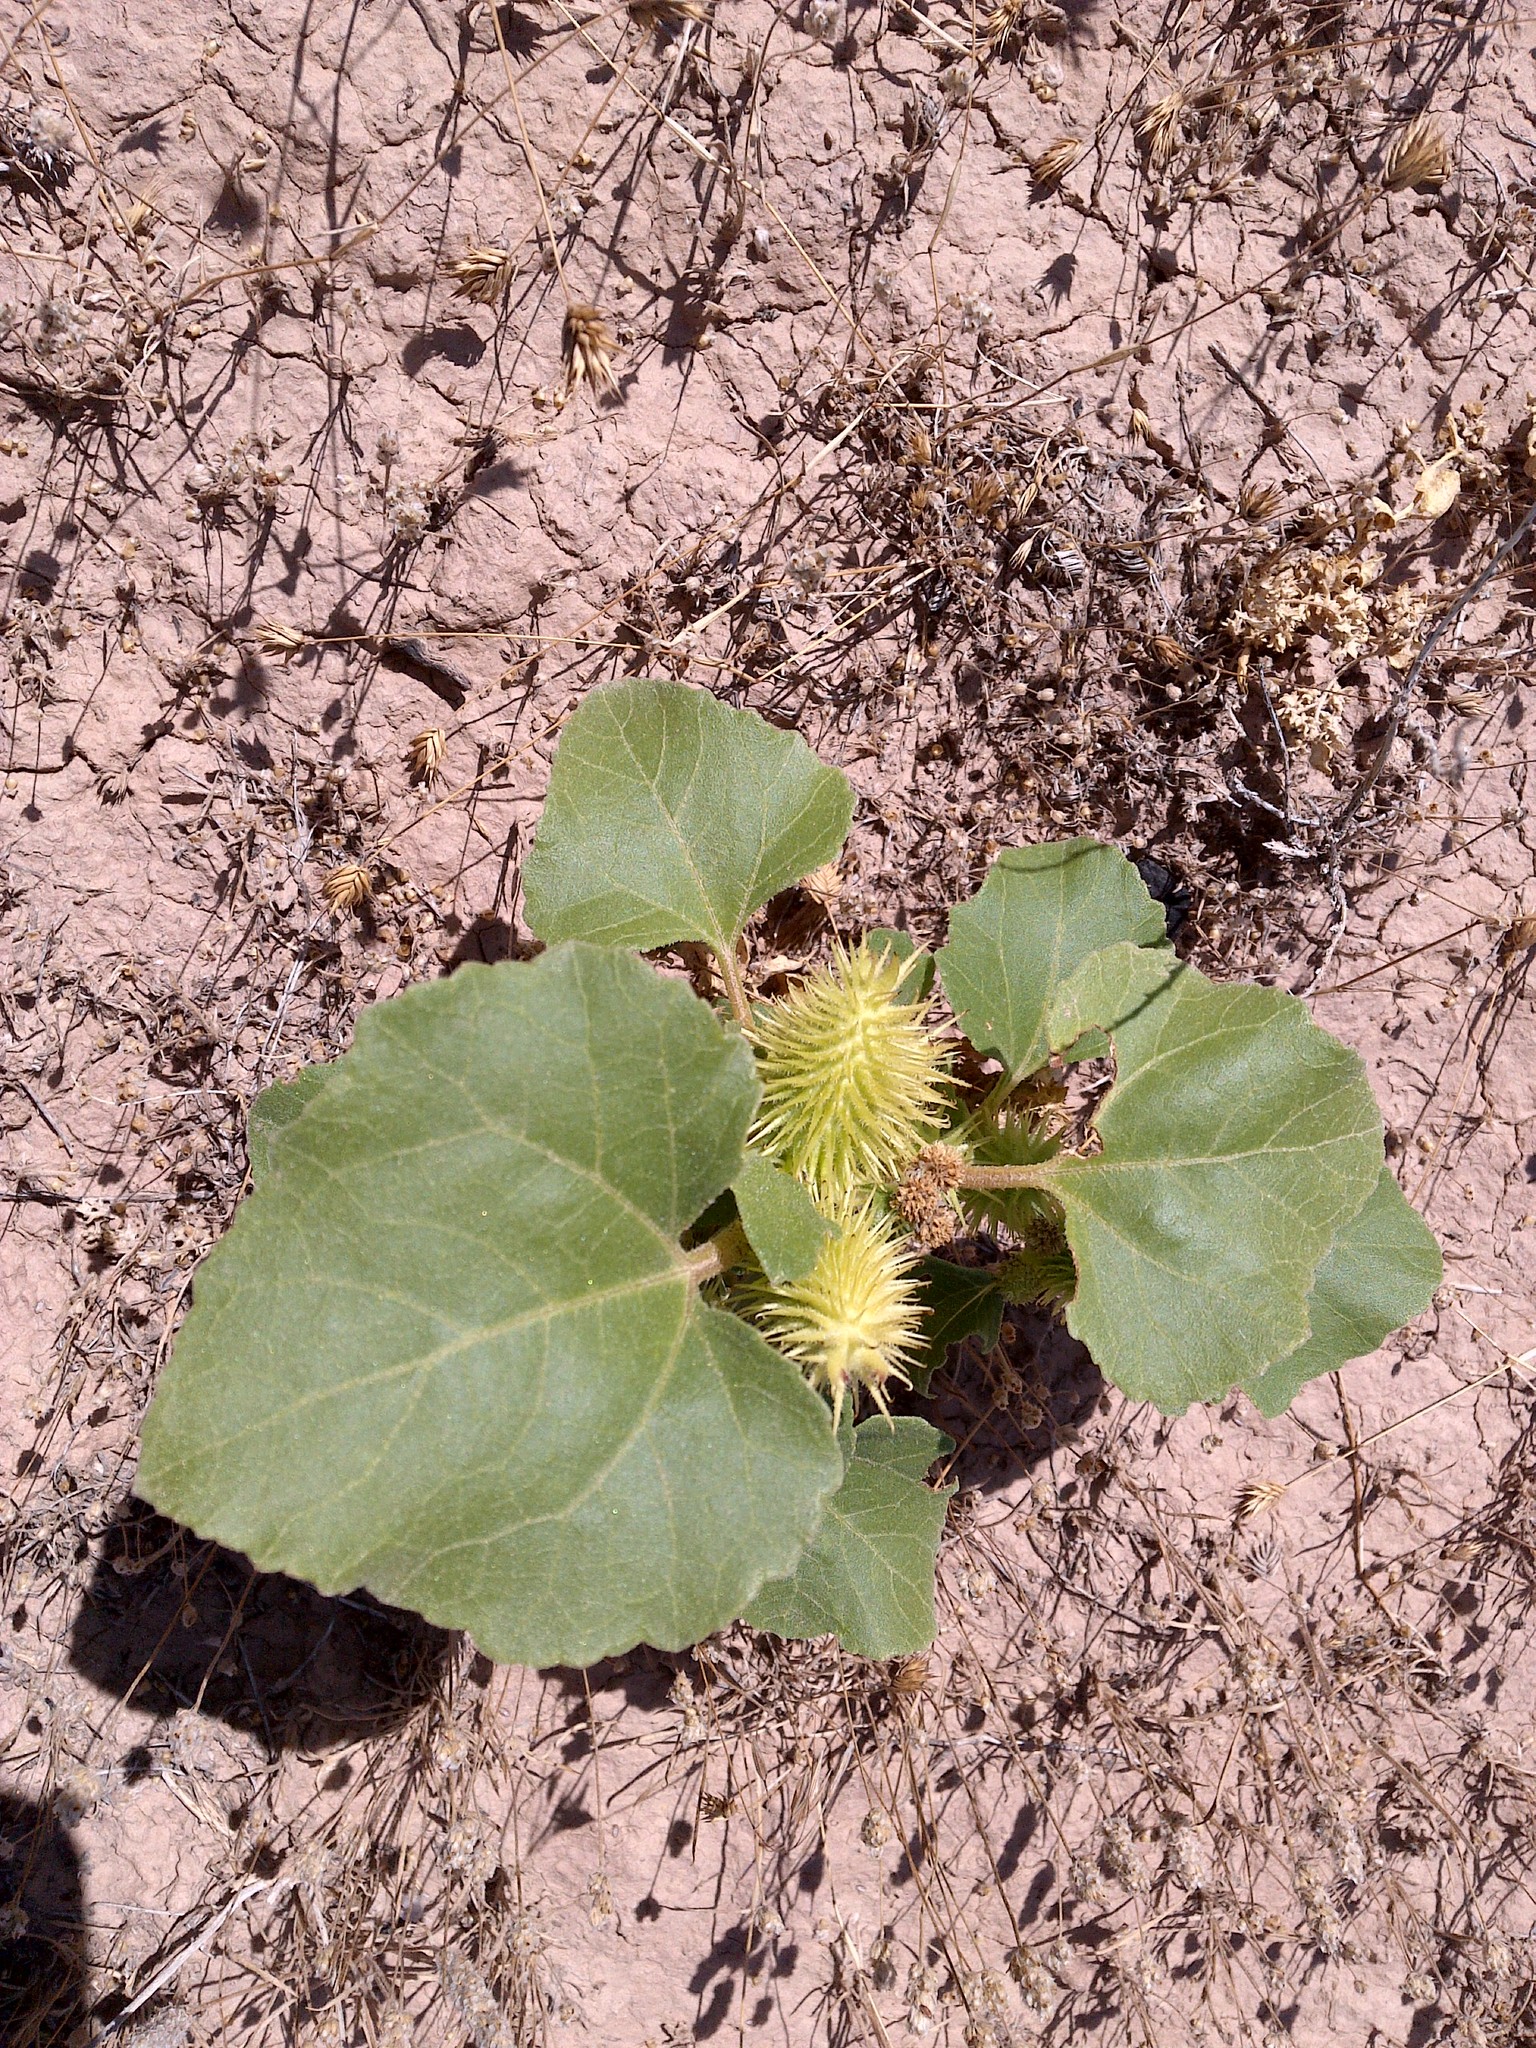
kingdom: Plantae
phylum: Tracheophyta
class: Magnoliopsida
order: Asterales
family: Asteraceae
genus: Xanthium
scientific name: Xanthium strumarium
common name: Rough cocklebur
